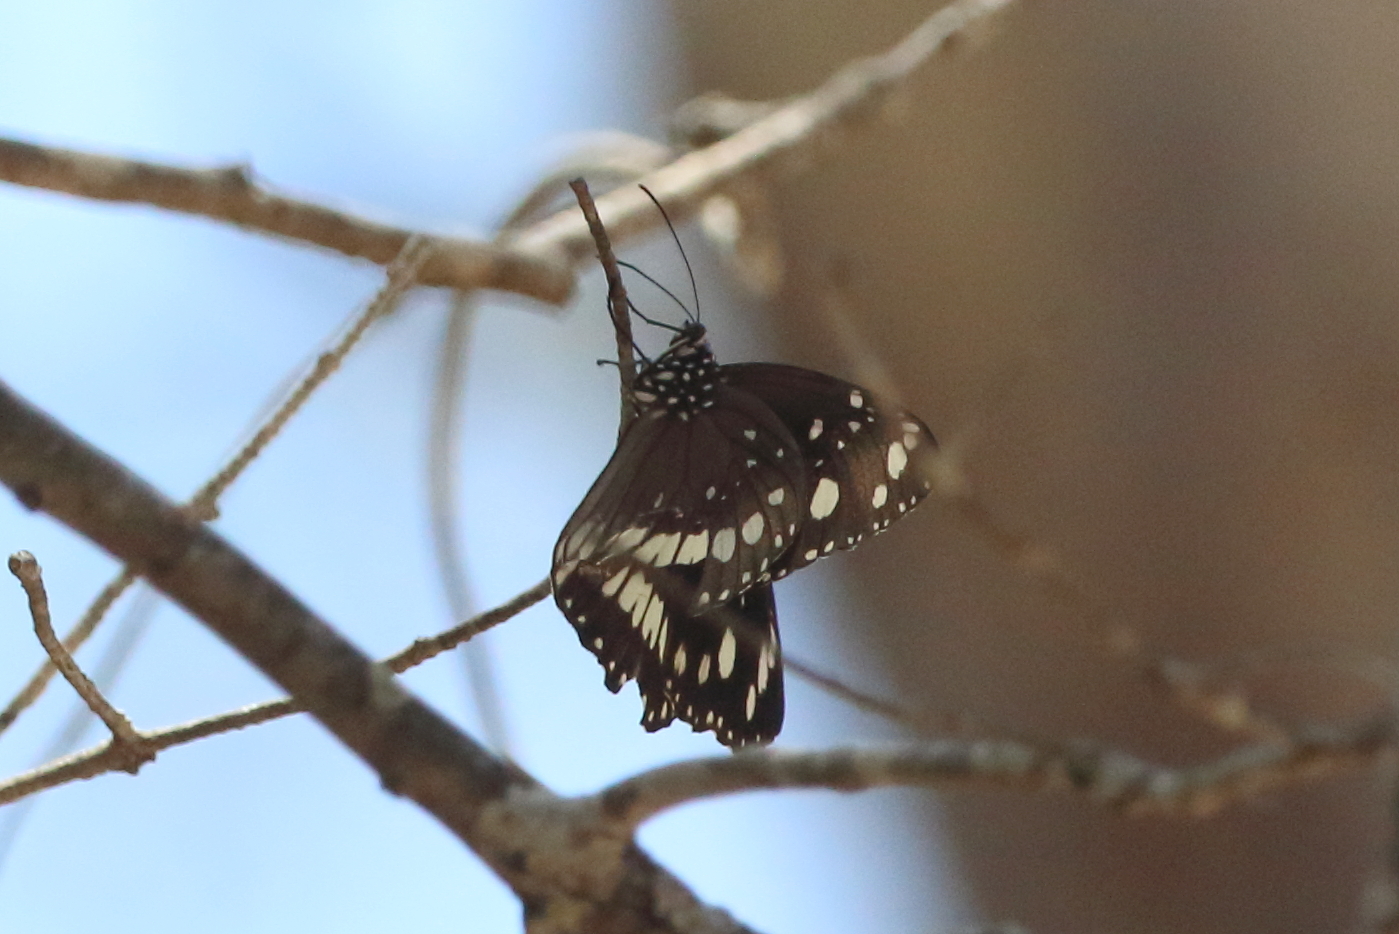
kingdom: Animalia
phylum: Arthropoda
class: Insecta
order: Lepidoptera
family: Nymphalidae
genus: Euploea
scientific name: Euploea core
